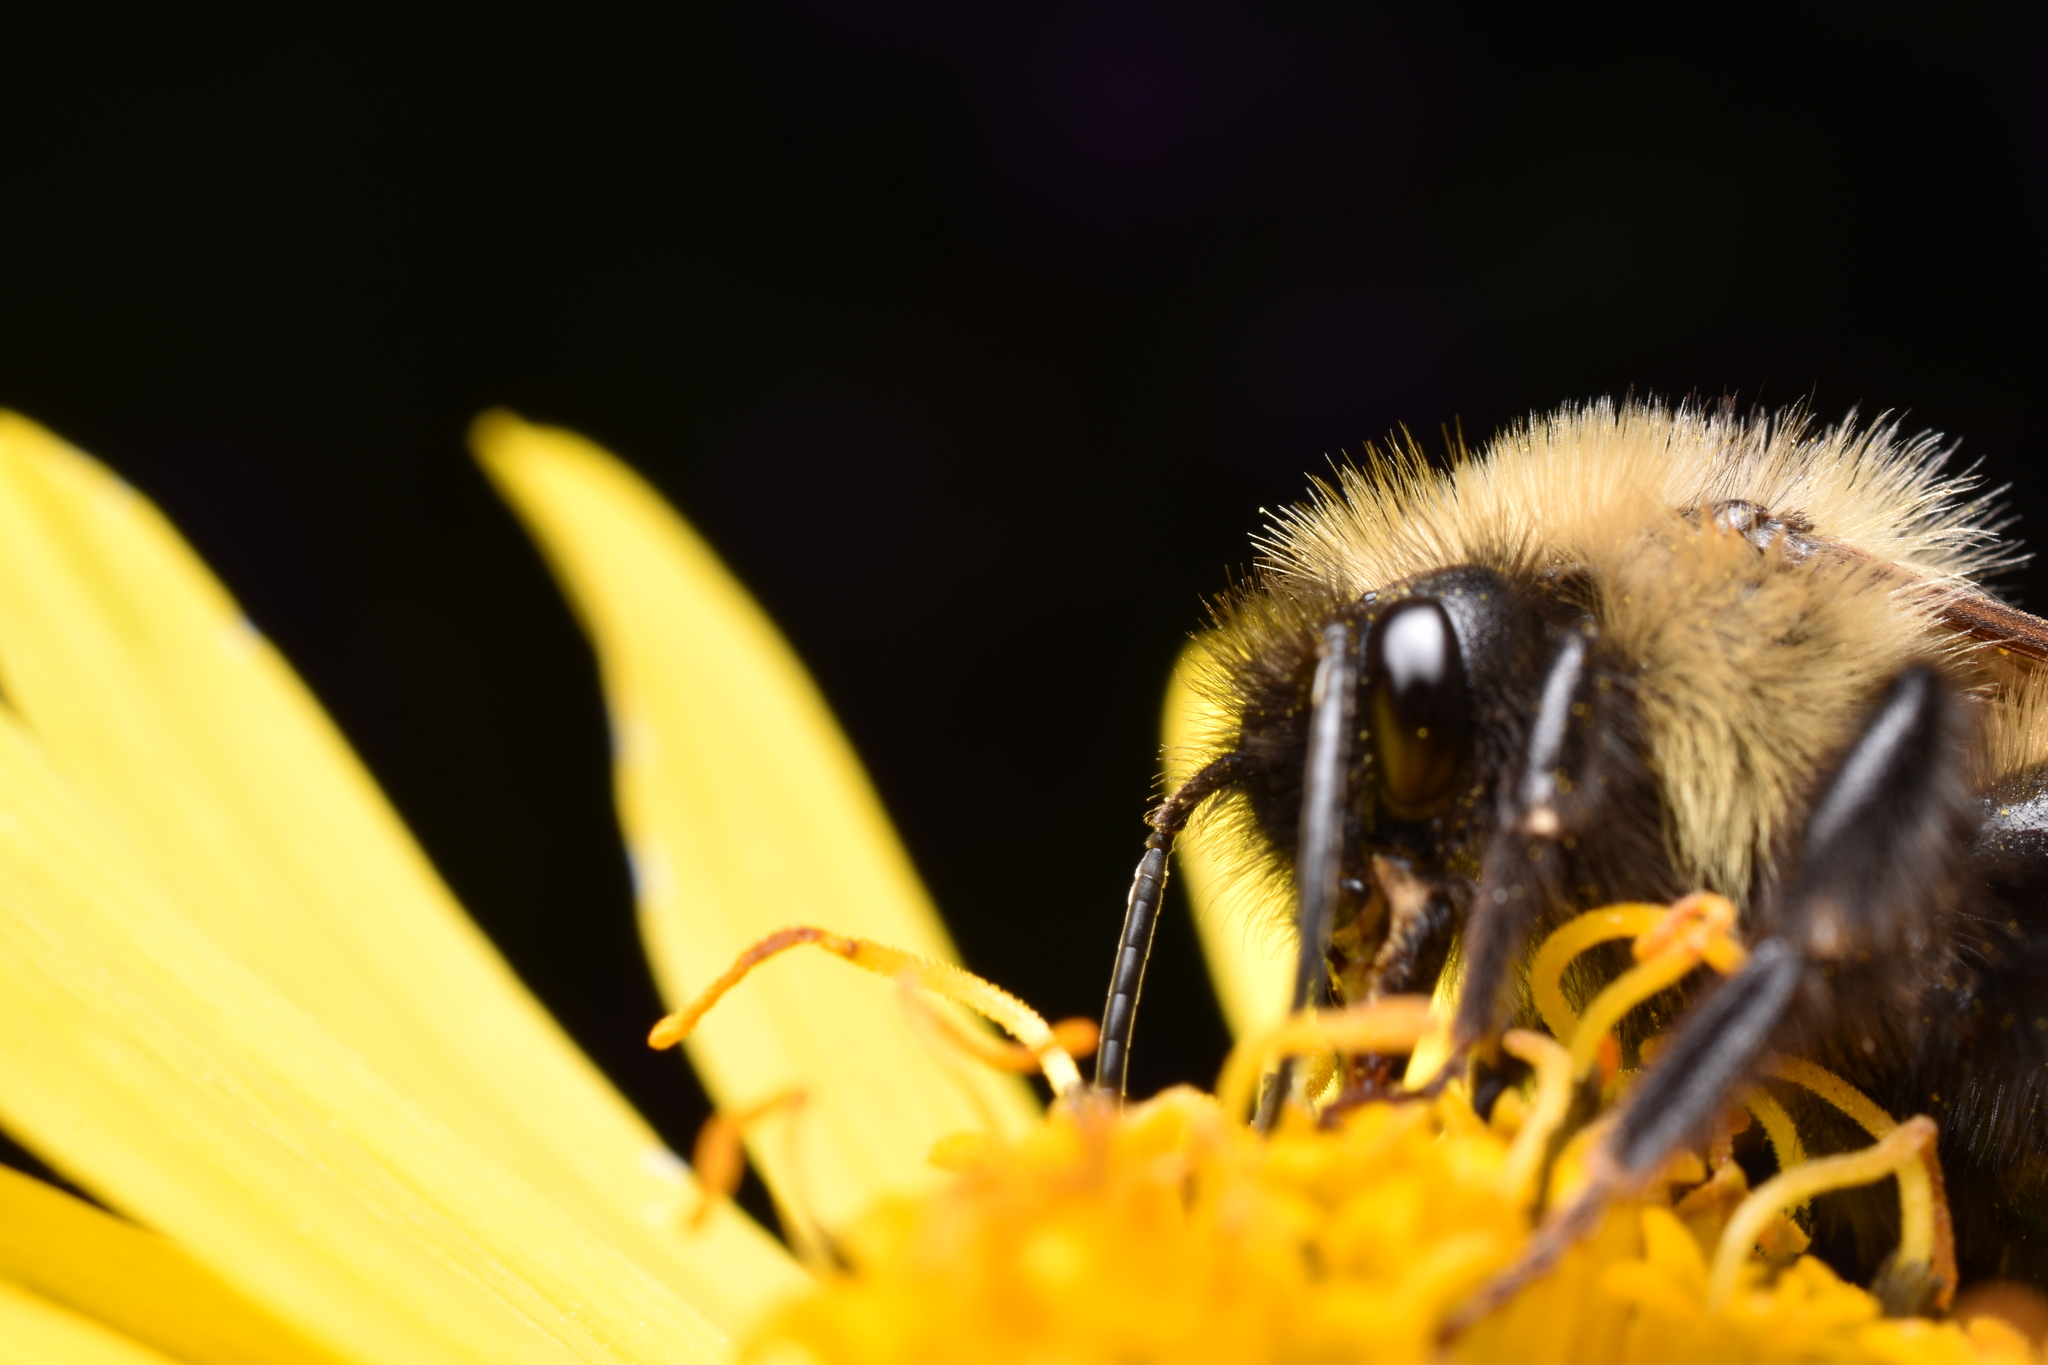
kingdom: Animalia
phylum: Arthropoda
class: Insecta
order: Hymenoptera
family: Apidae
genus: Bombus
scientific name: Bombus citrinus
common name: Lemon cuckoo bumble bee
